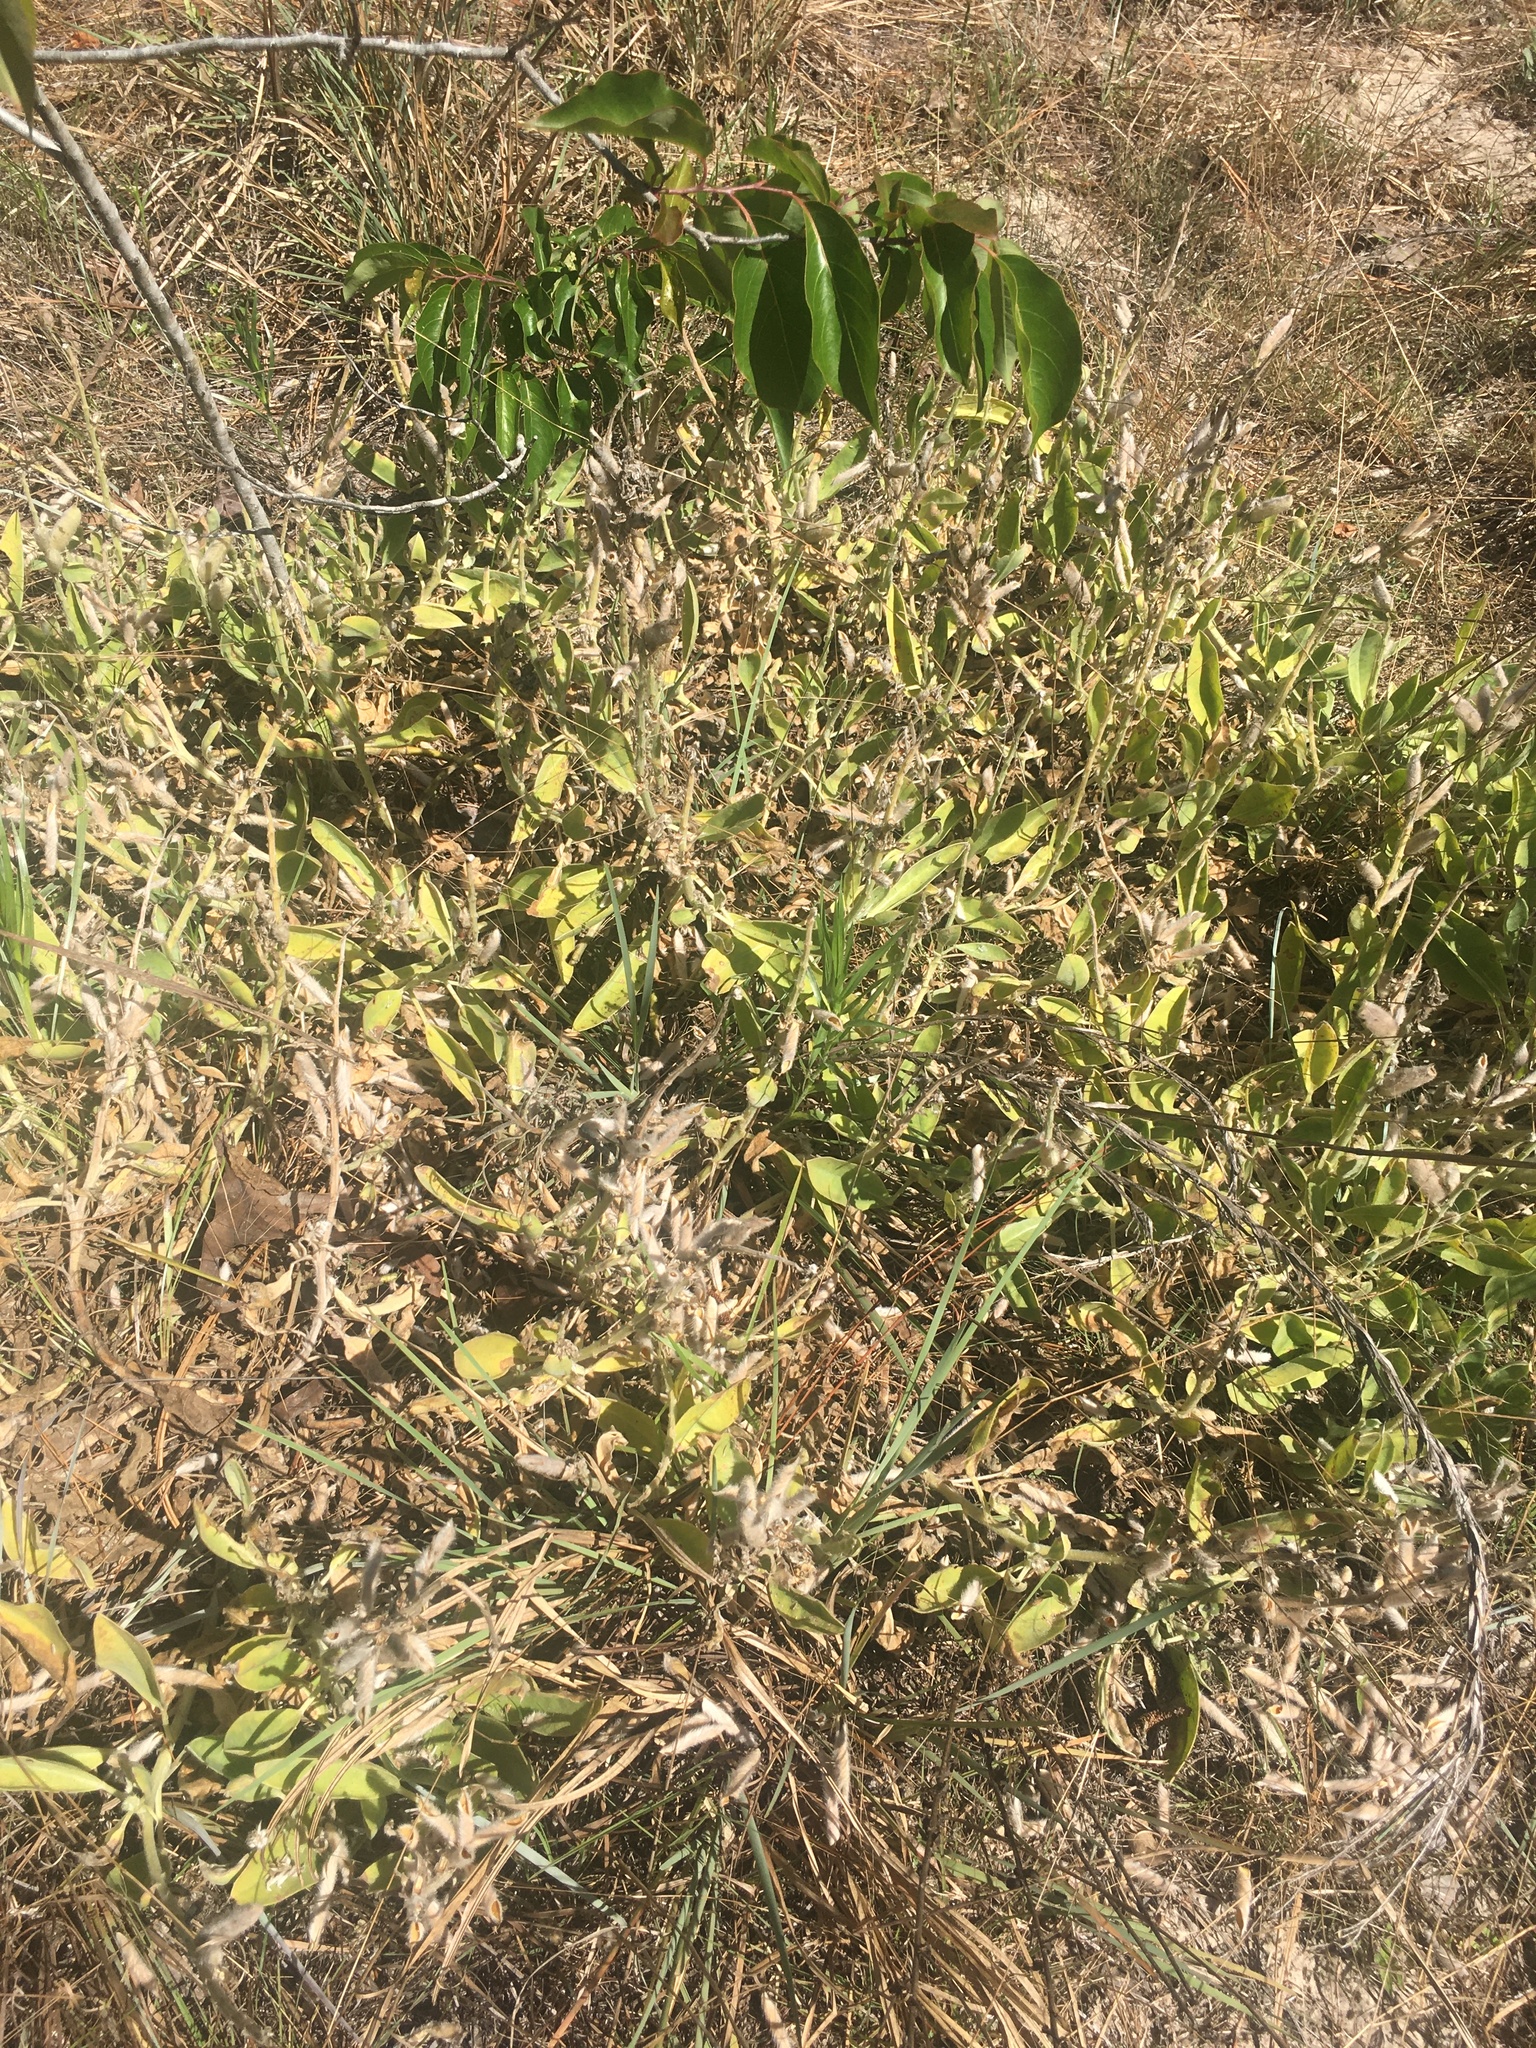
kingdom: Plantae
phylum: Tracheophyta
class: Magnoliopsida
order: Fabales
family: Fabaceae
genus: Lupinus
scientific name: Lupinus
